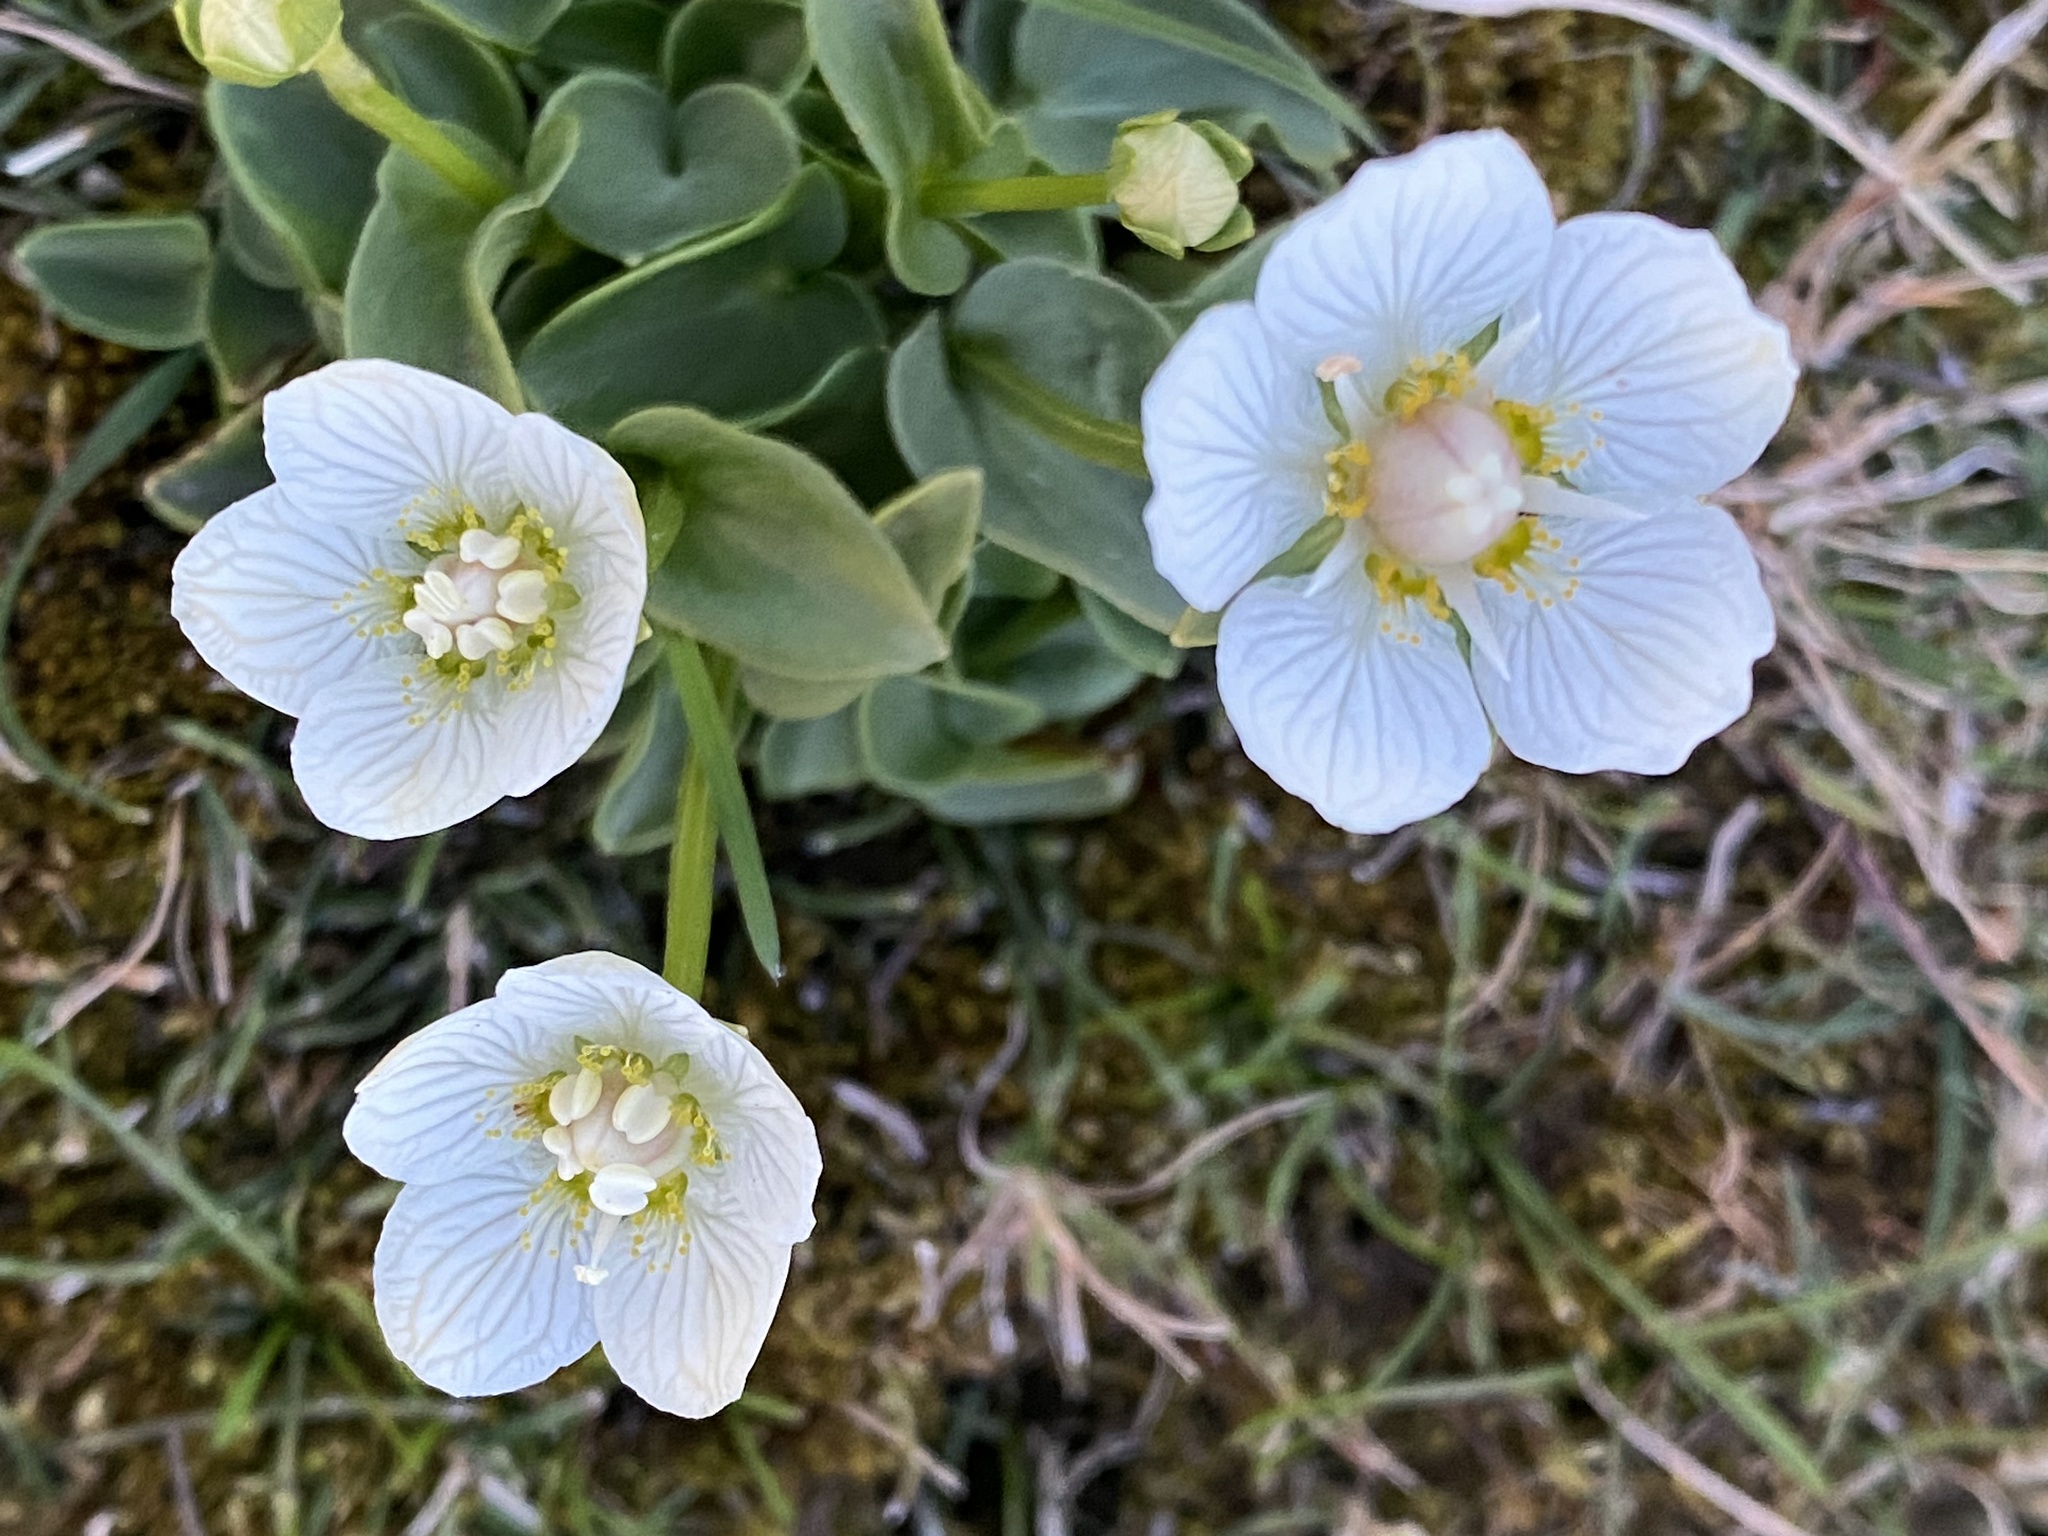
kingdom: Plantae
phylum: Tracheophyta
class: Magnoliopsida
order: Celastrales
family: Parnassiaceae
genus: Parnassia
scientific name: Parnassia palustris
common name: Grass-of-parnassus
